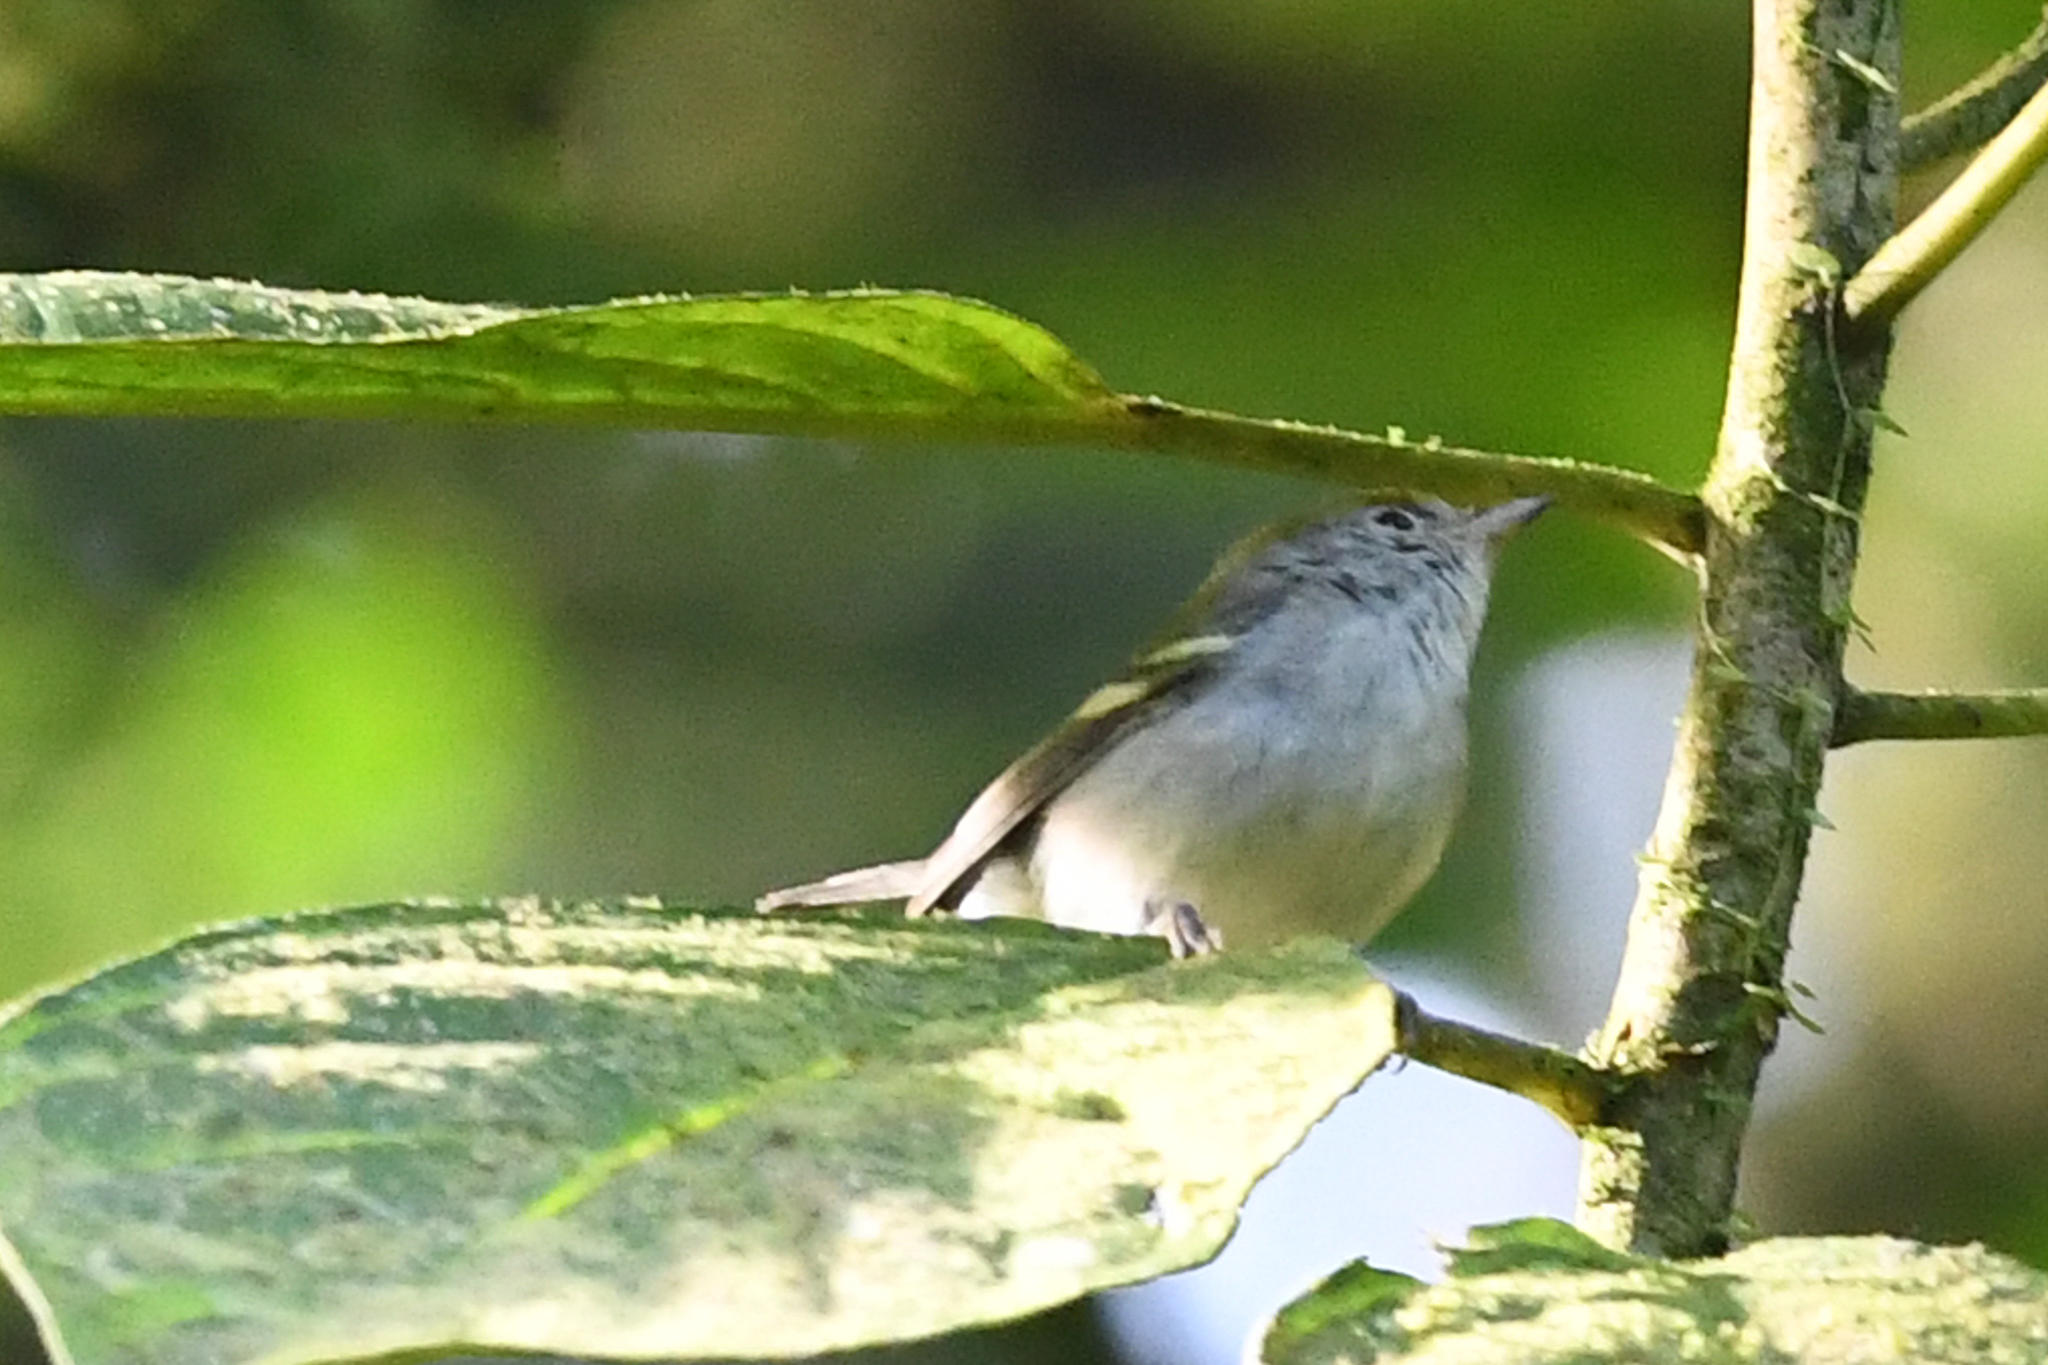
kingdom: Animalia
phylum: Chordata
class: Aves
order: Passeriformes
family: Parulidae
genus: Setophaga
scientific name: Setophaga pensylvanica
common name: Chestnut-sided warbler
